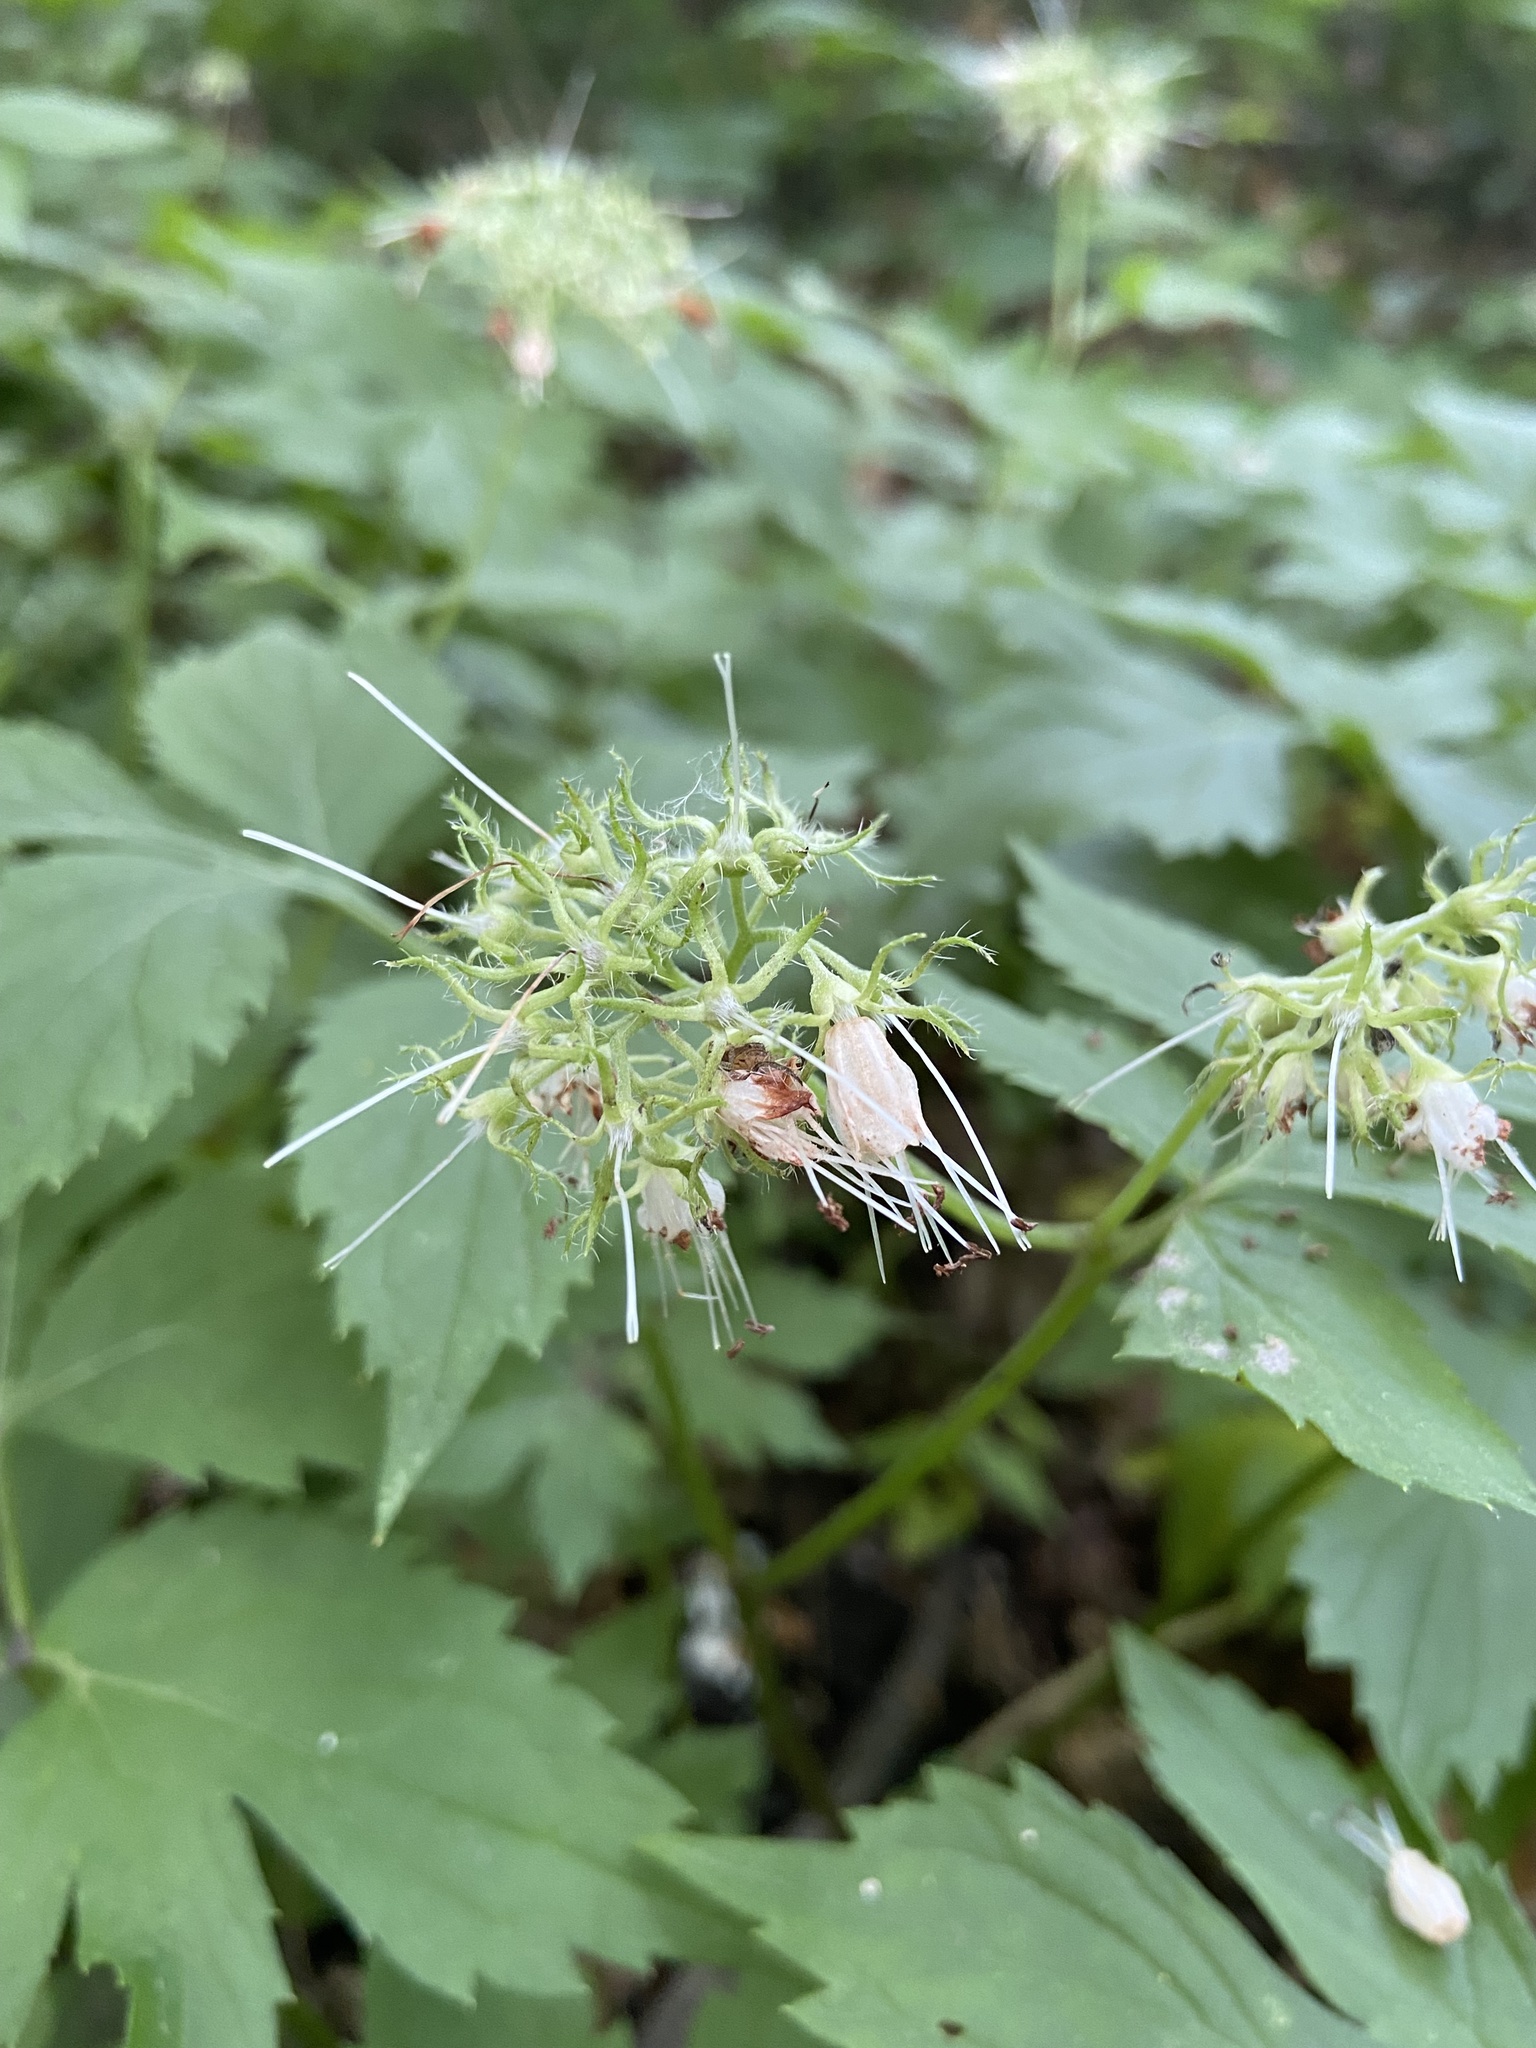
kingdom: Plantae
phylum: Tracheophyta
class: Magnoliopsida
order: Boraginales
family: Hydrophyllaceae
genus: Hydrophyllum
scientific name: Hydrophyllum virginianum
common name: Virginia waterleaf
